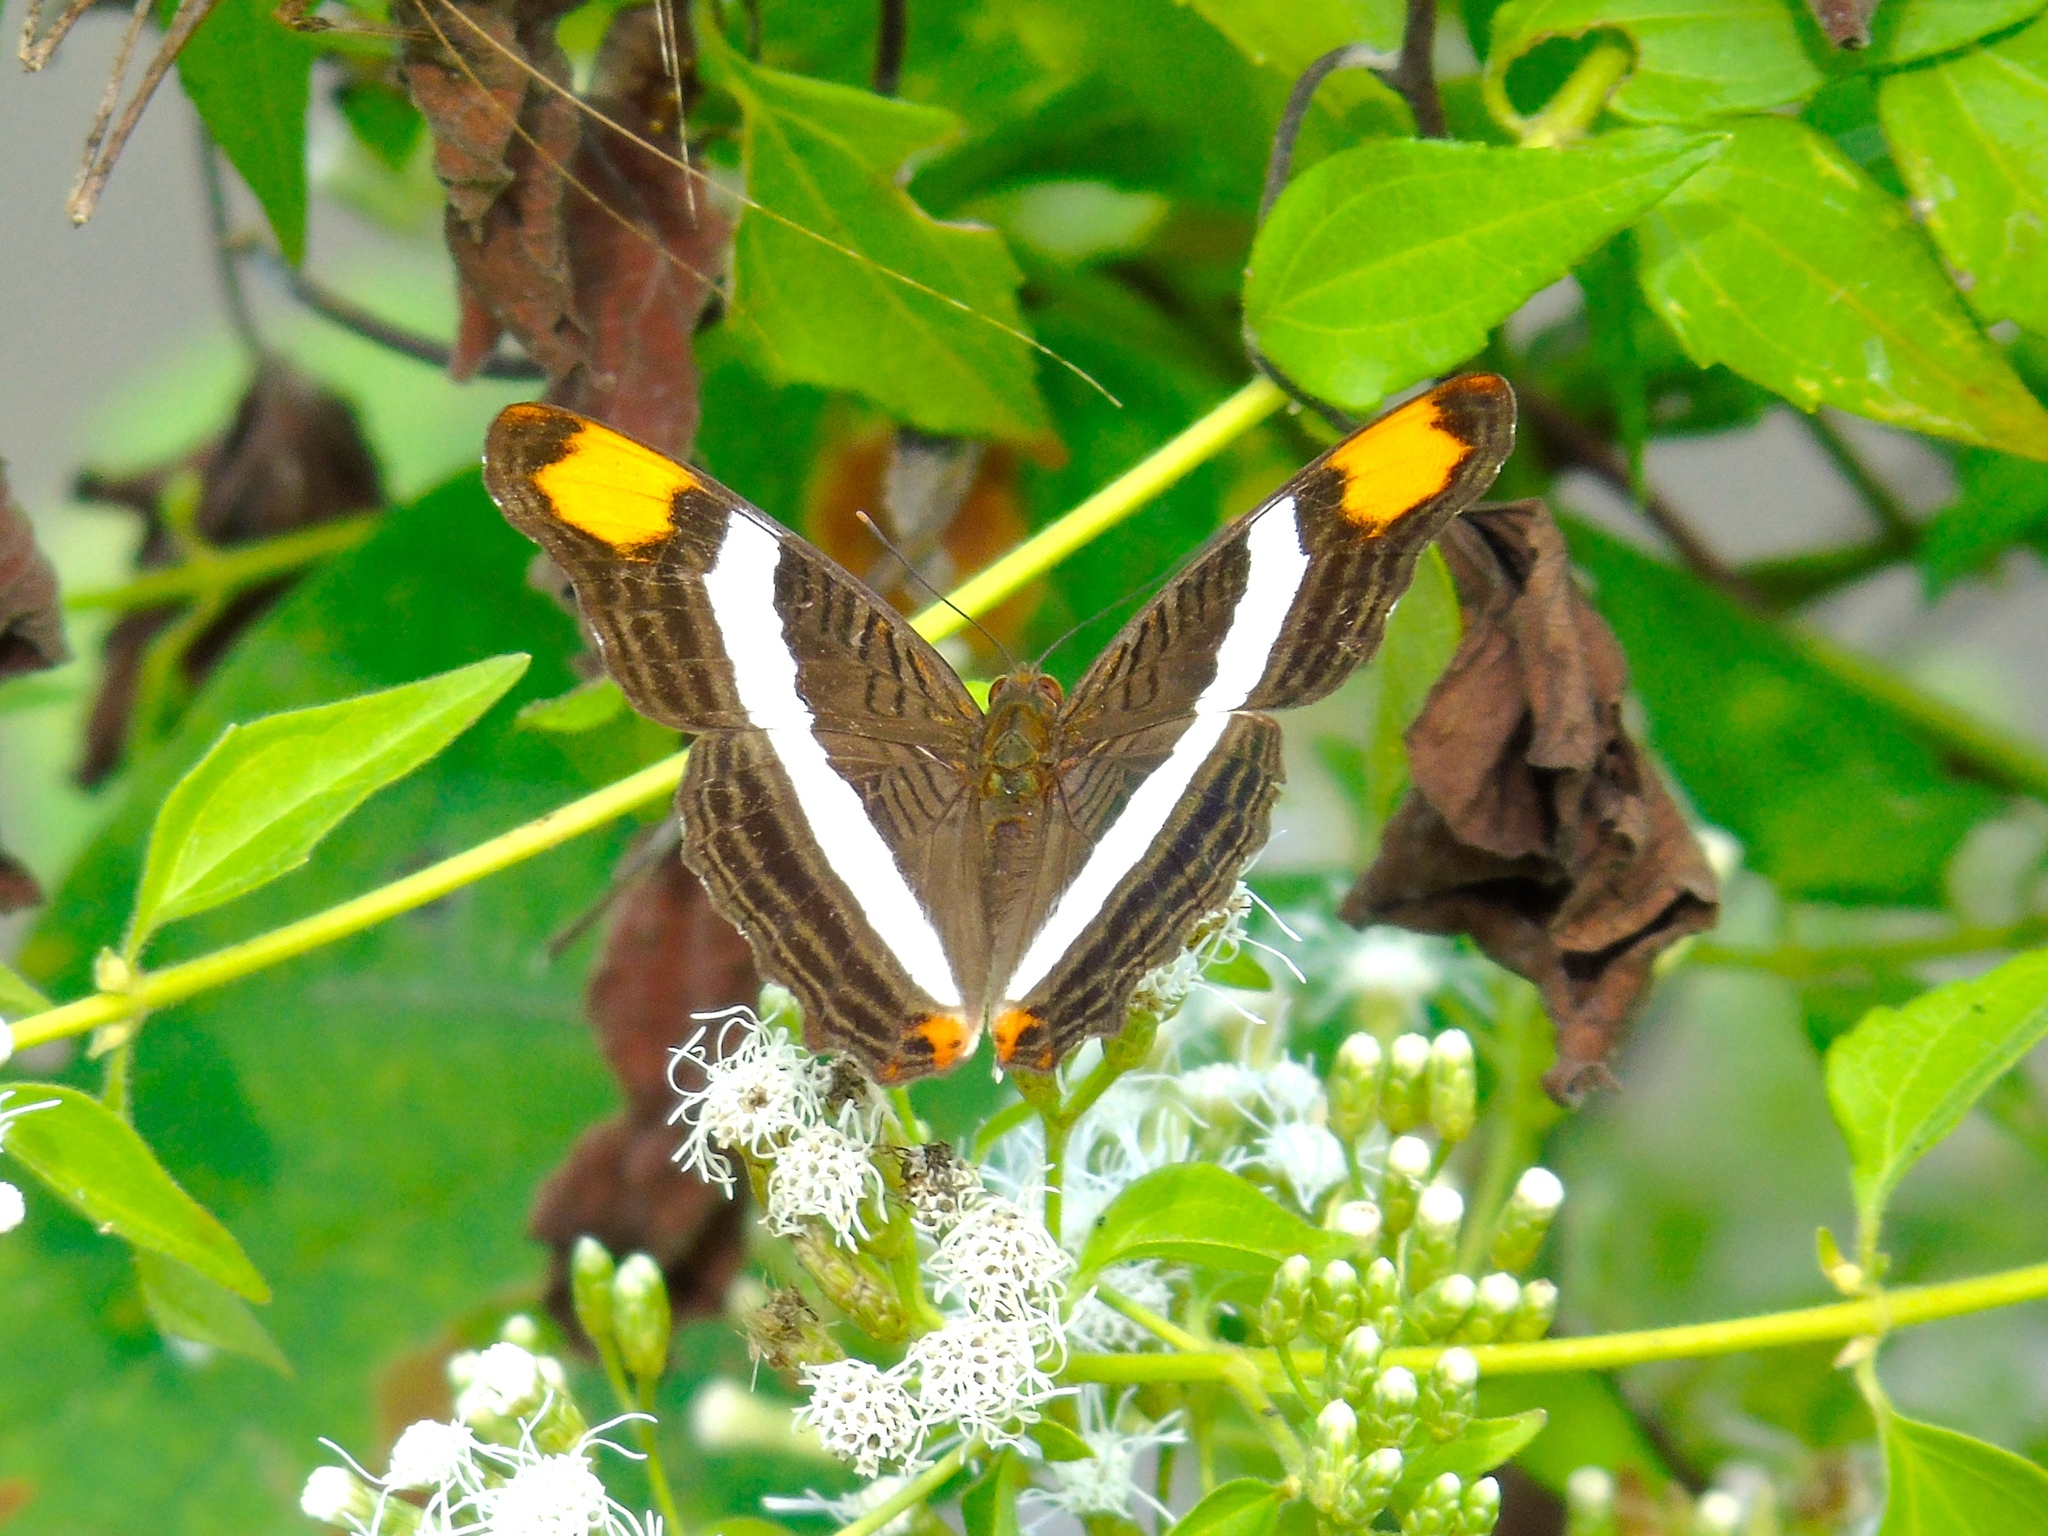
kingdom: Animalia
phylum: Arthropoda
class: Insecta
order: Lepidoptera
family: Nymphalidae
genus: Limenitis
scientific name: Limenitis fessonia
